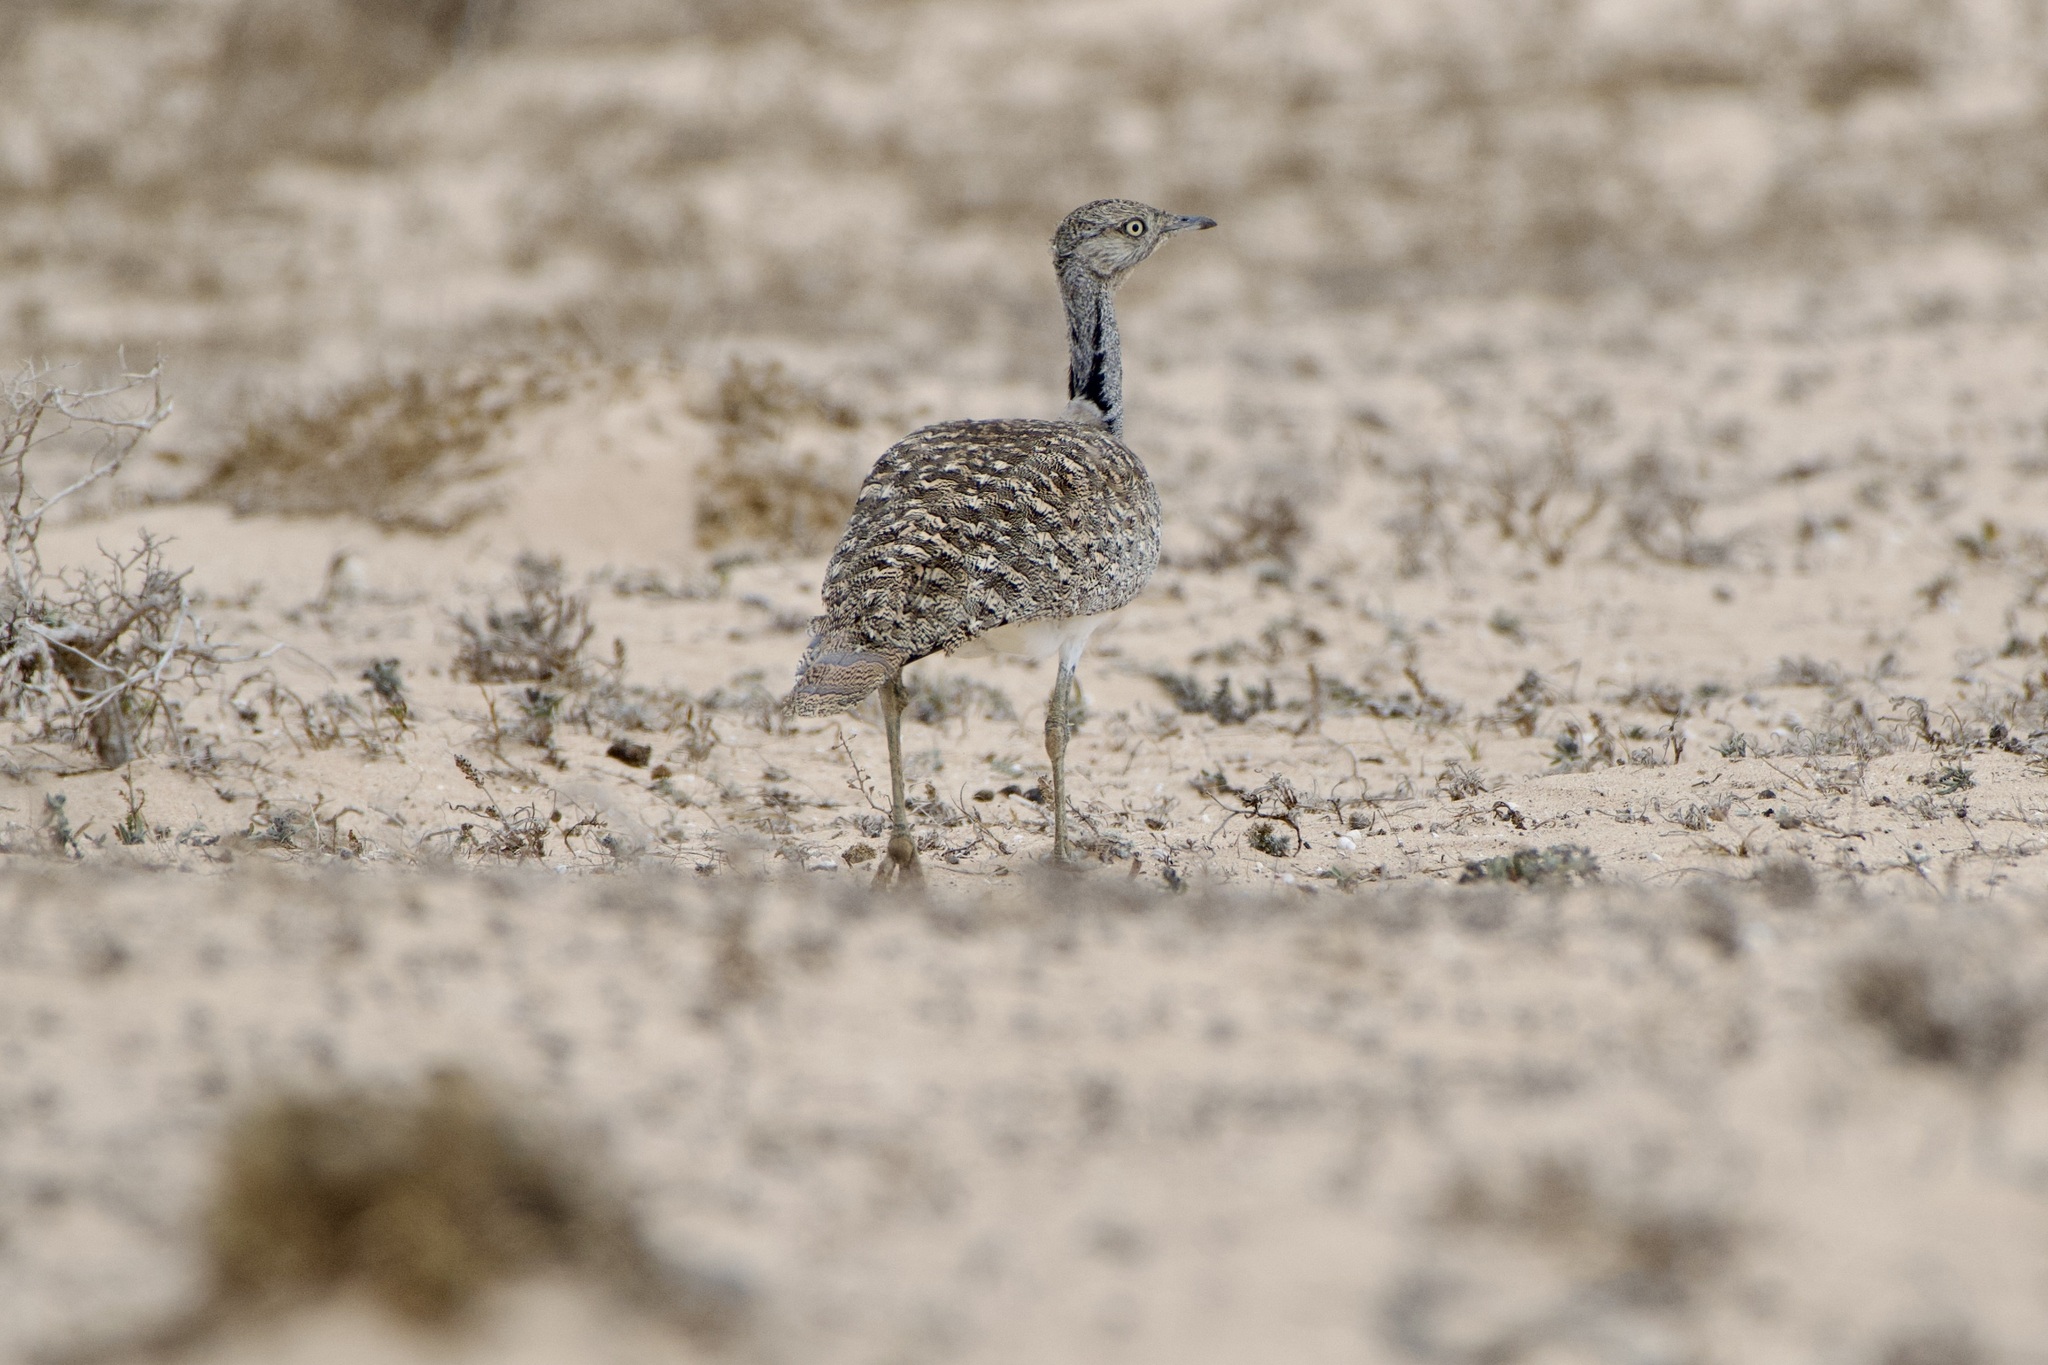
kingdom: Animalia
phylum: Chordata
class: Aves
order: Otidiformes
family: Otididae
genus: Chlamydotis
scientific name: Chlamydotis undulata
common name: Houbara bustard
